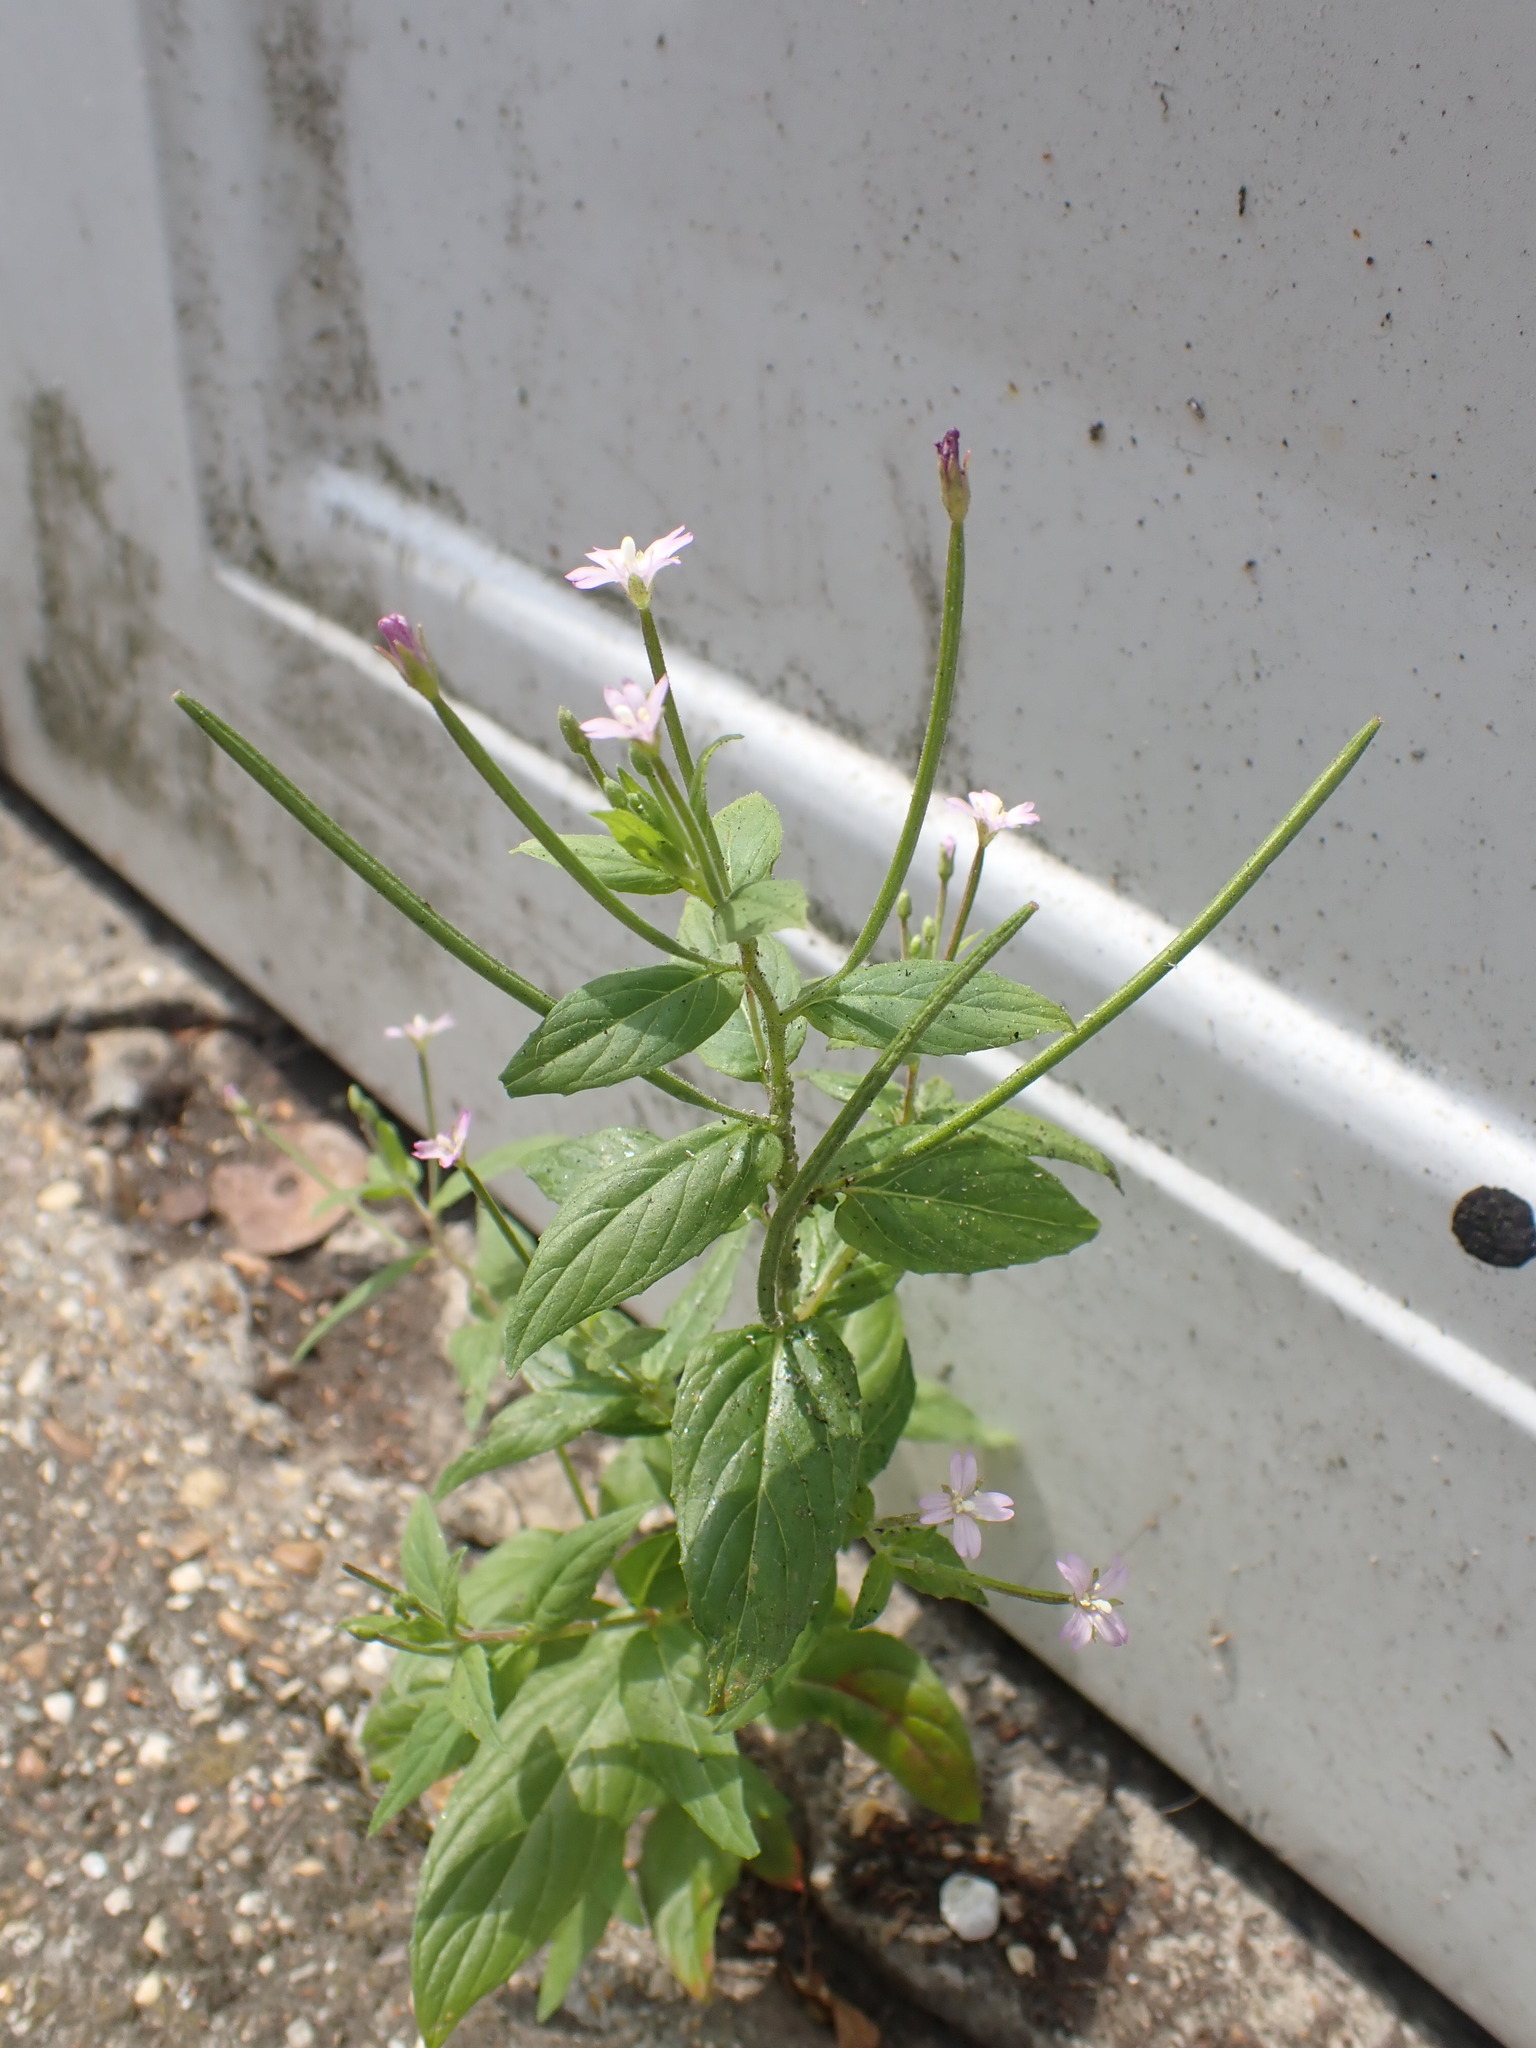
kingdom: Plantae
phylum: Tracheophyta
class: Magnoliopsida
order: Myrtales
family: Onagraceae
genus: Epilobium
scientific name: Epilobium ciliatum
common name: American willowherb
